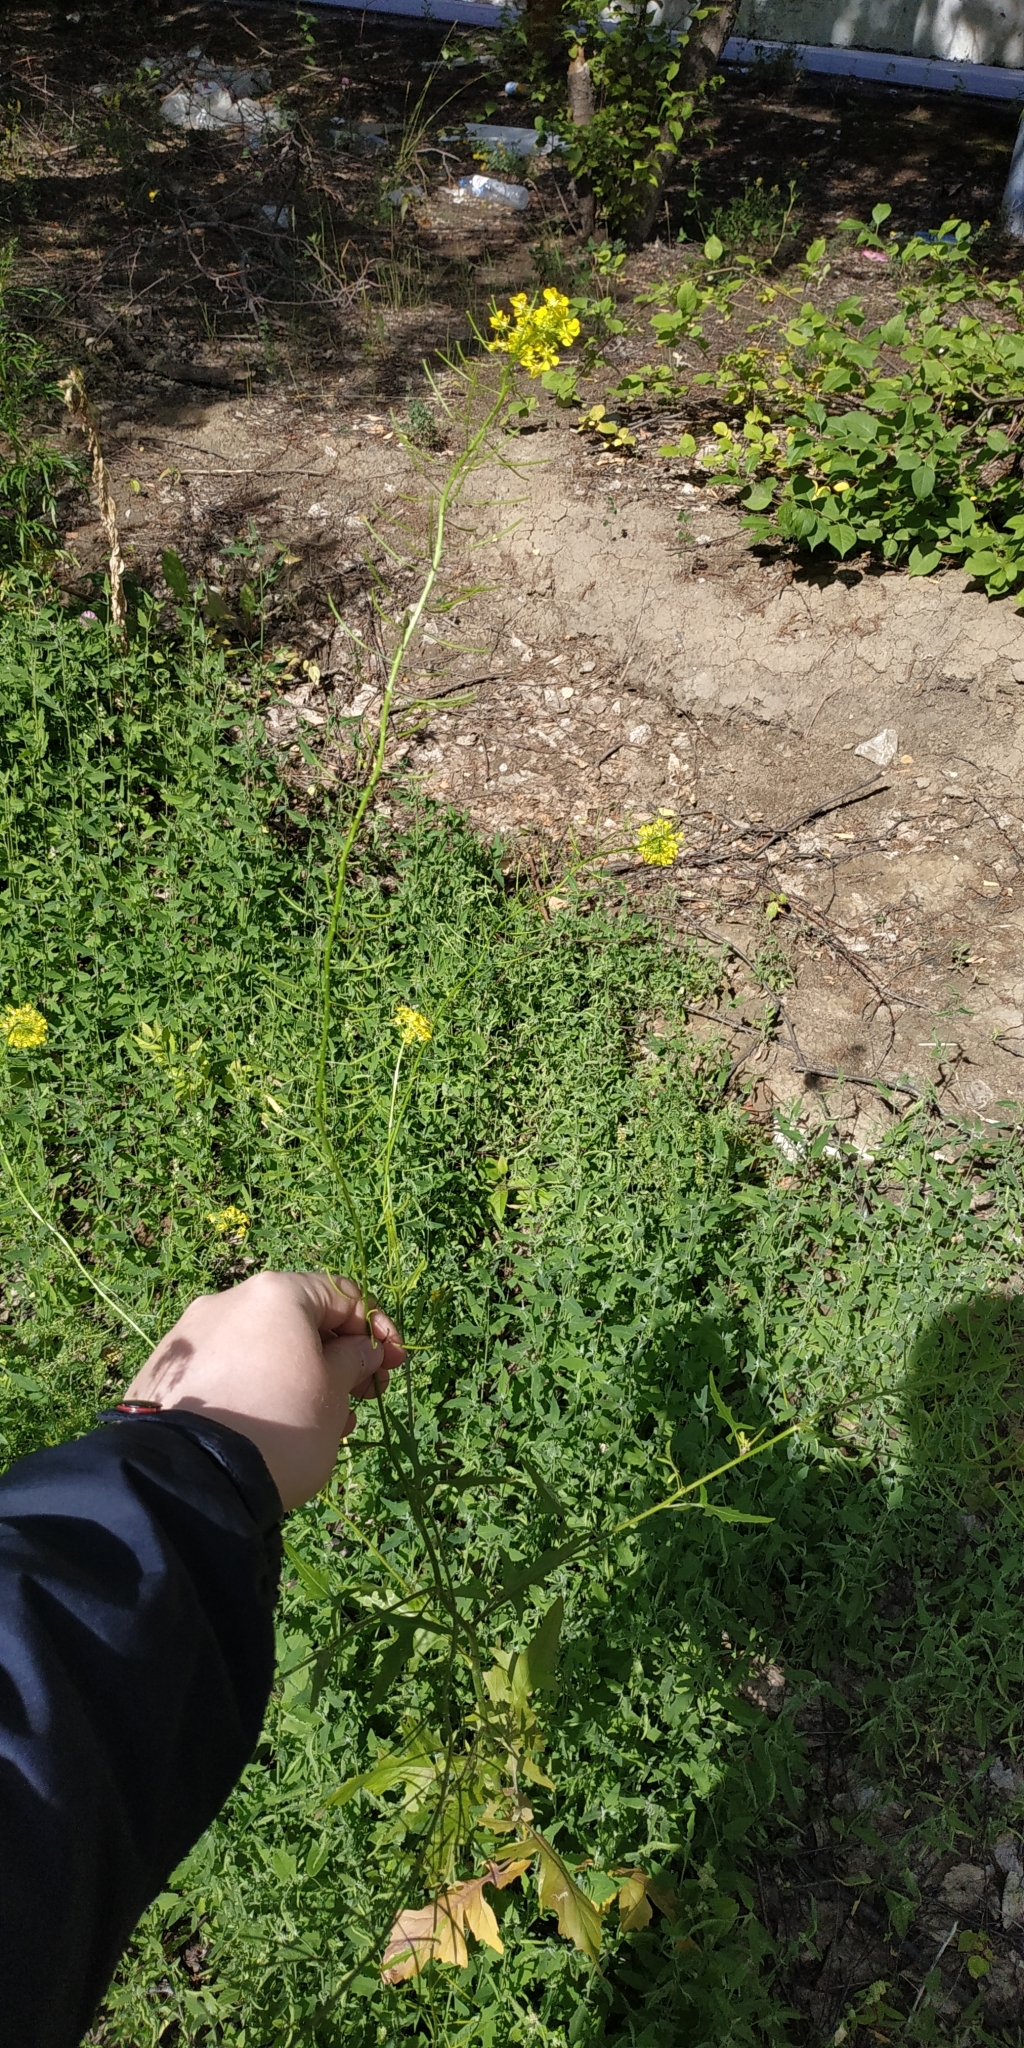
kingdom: Plantae
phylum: Tracheophyta
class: Magnoliopsida
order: Brassicales
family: Brassicaceae
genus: Sisymbrium
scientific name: Sisymbrium loeselii
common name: False london-rocket
